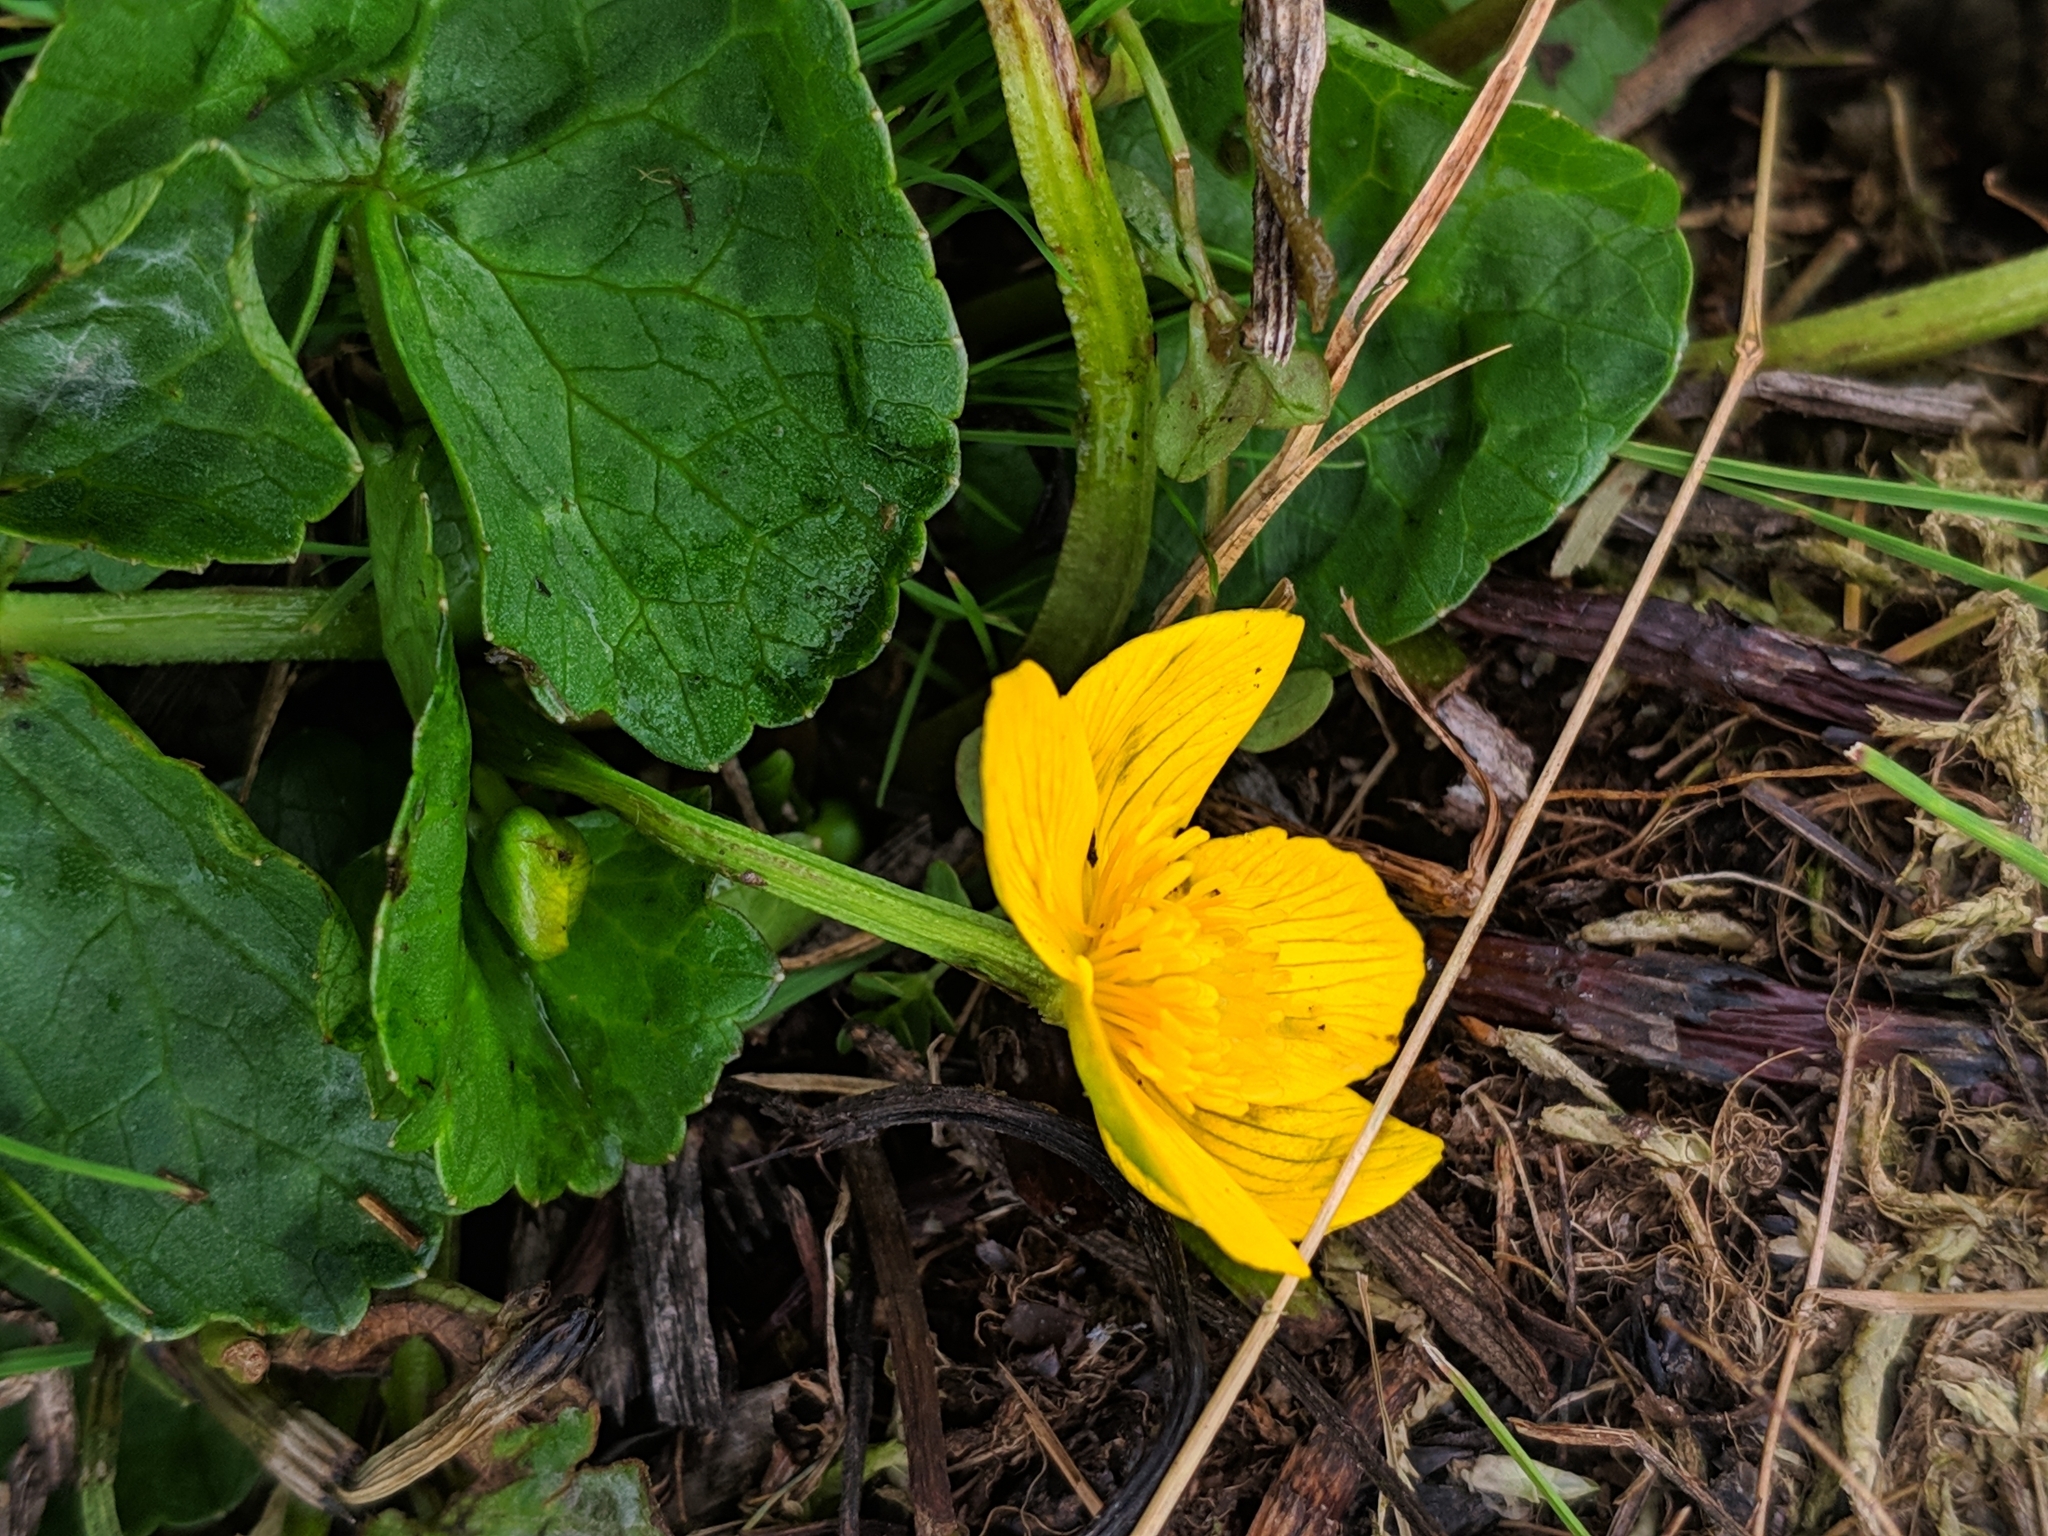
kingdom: Plantae
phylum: Tracheophyta
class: Magnoliopsida
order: Ranunculales
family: Ranunculaceae
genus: Caltha
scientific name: Caltha palustris
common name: Marsh marigold
